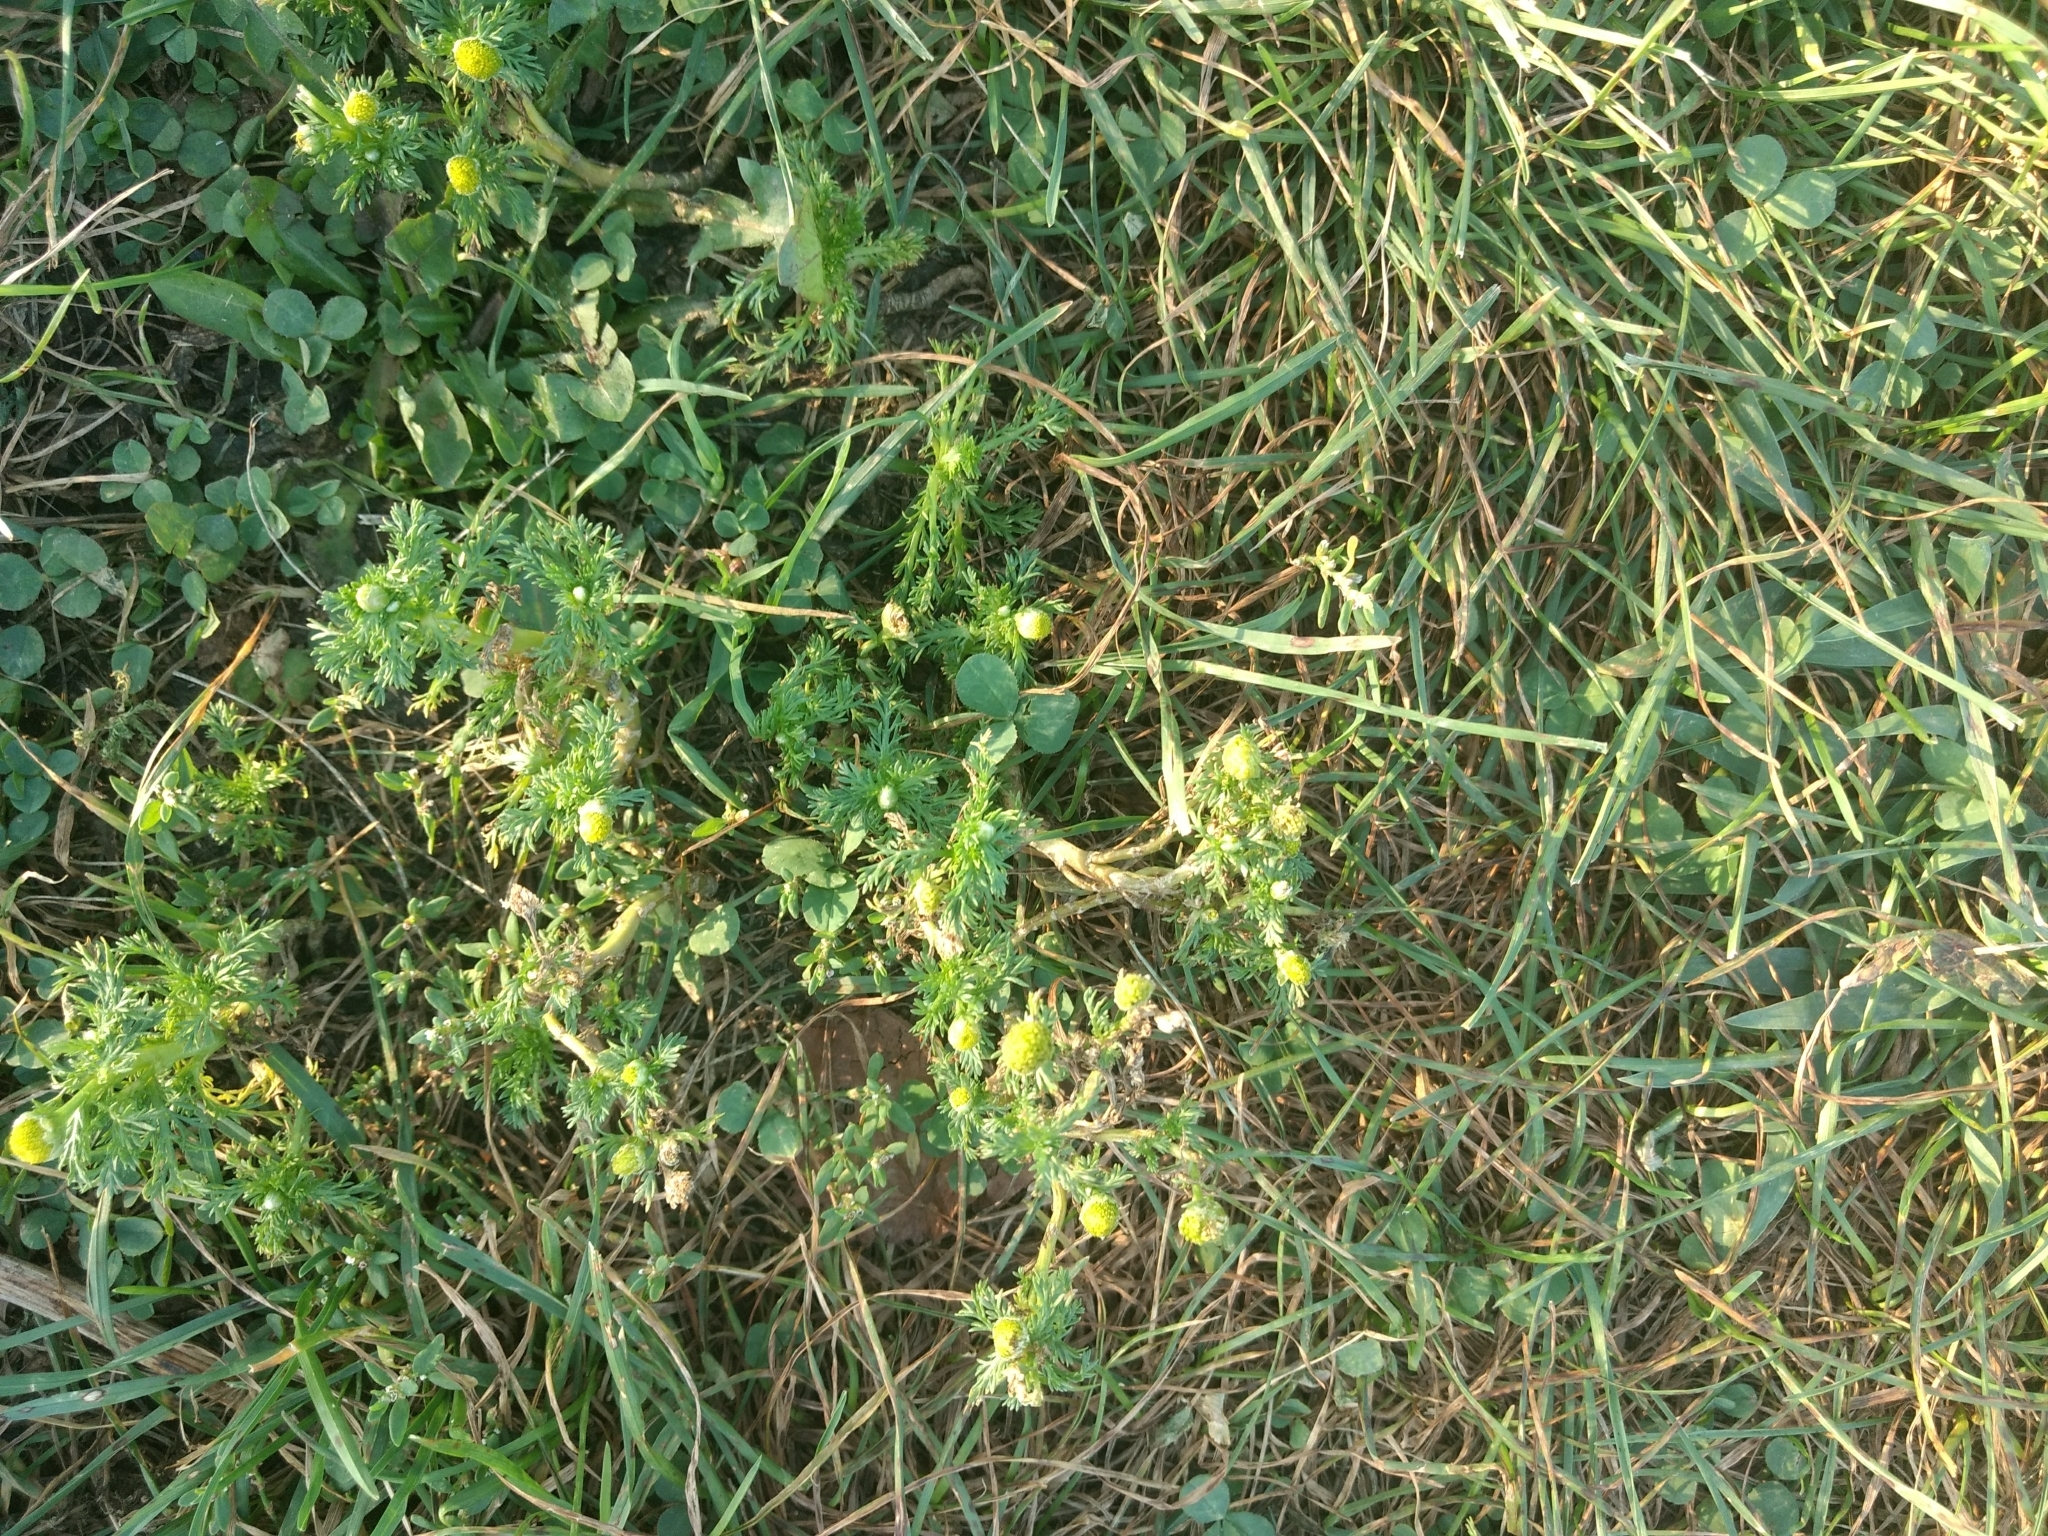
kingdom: Plantae
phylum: Tracheophyta
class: Magnoliopsida
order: Asterales
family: Asteraceae
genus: Matricaria
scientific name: Matricaria discoidea
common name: Disc mayweed
